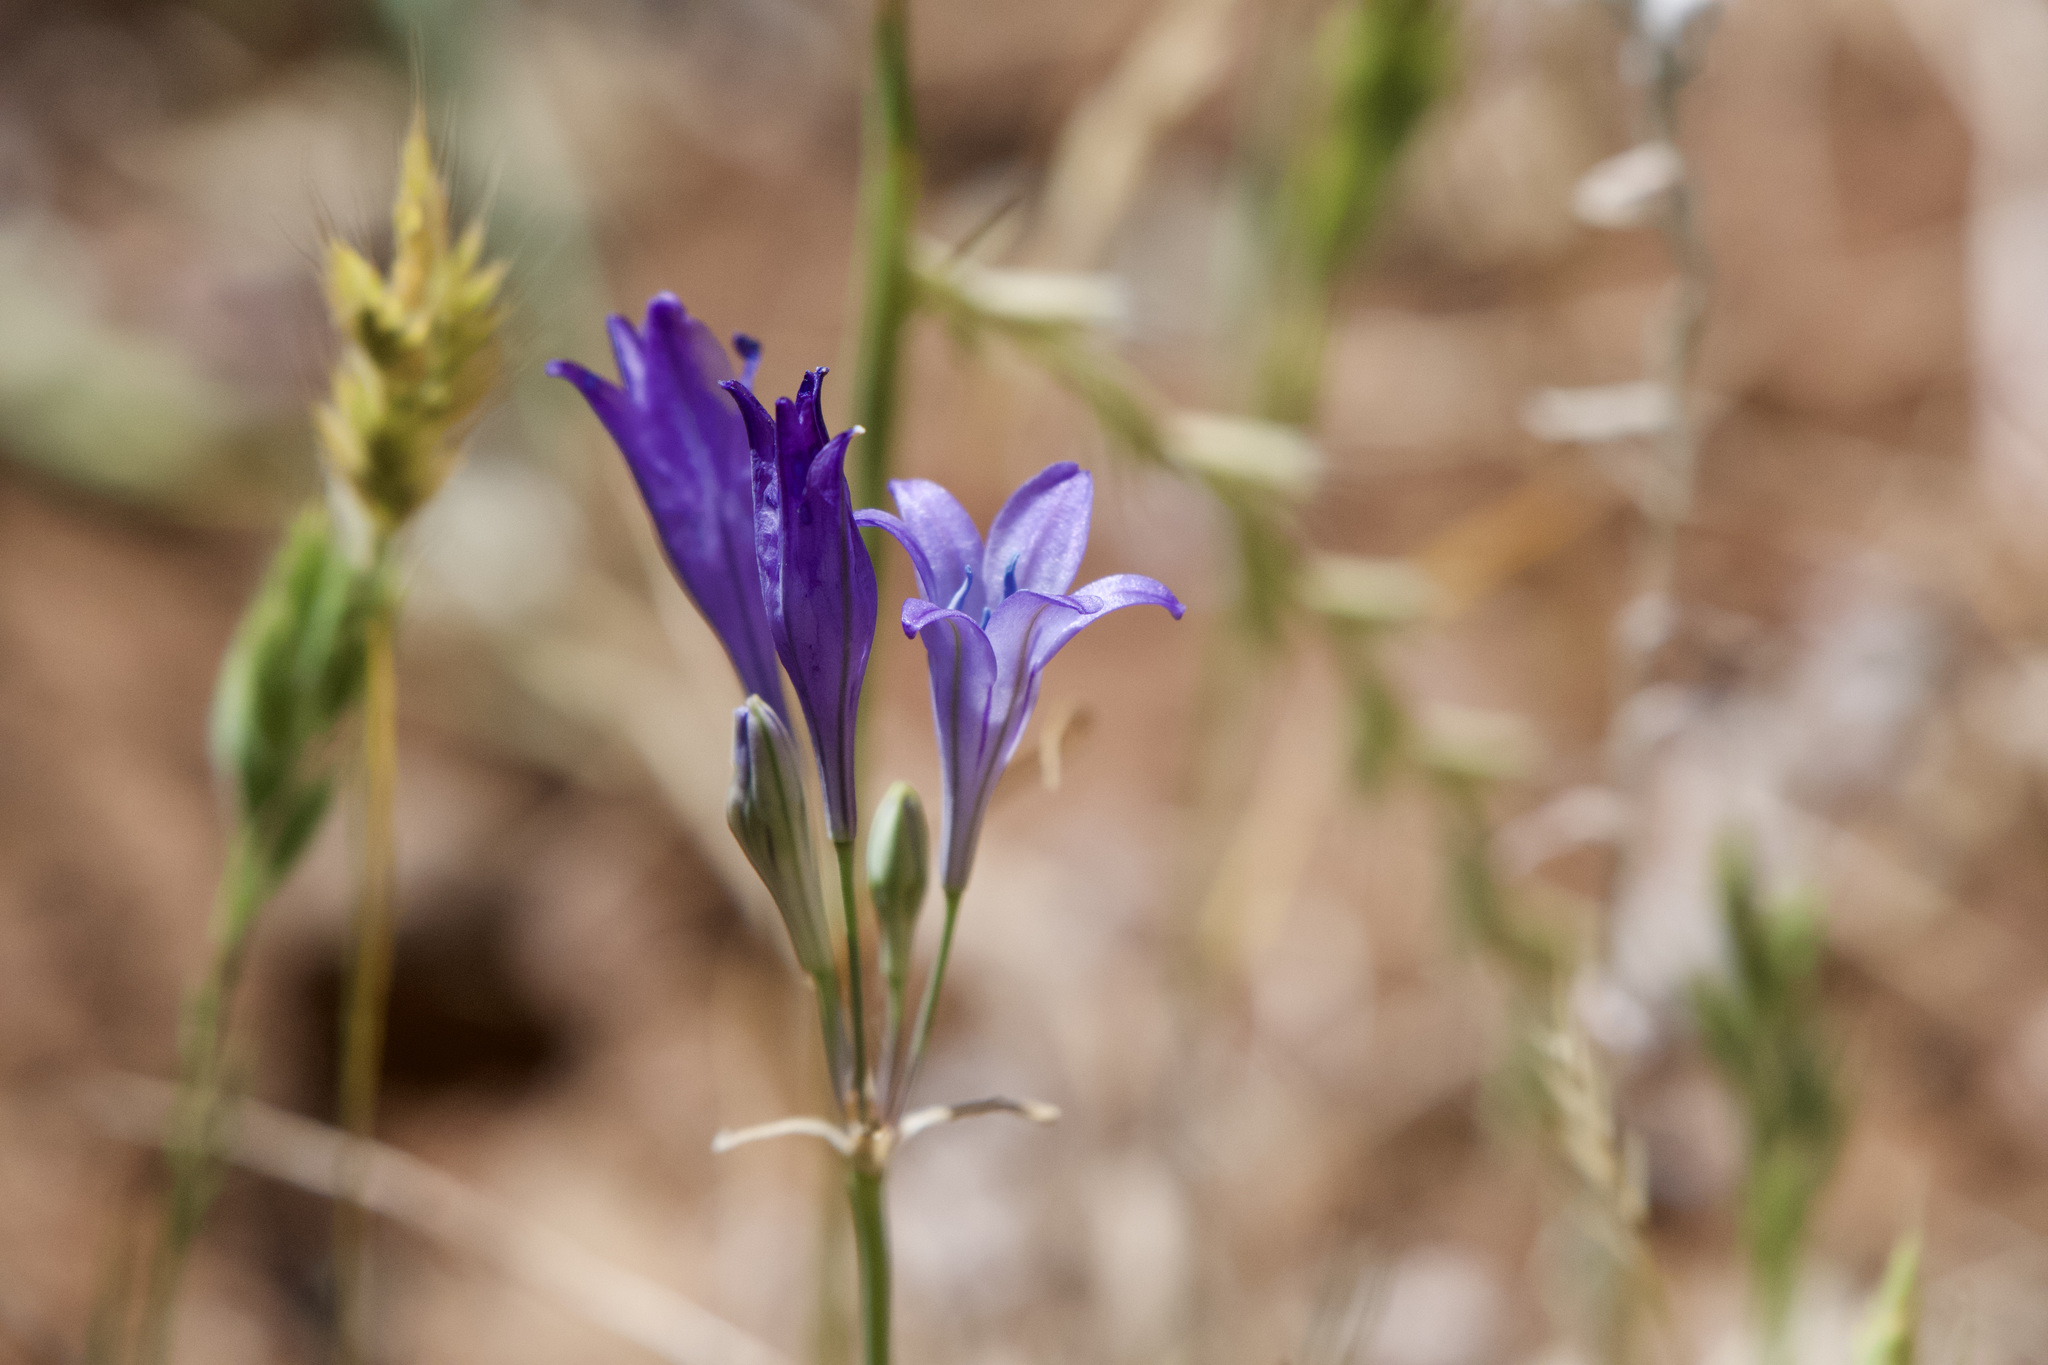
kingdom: Plantae
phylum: Tracheophyta
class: Liliopsida
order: Asparagales
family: Asparagaceae
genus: Triteleia
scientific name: Triteleia laxa
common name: Triplet-lily
